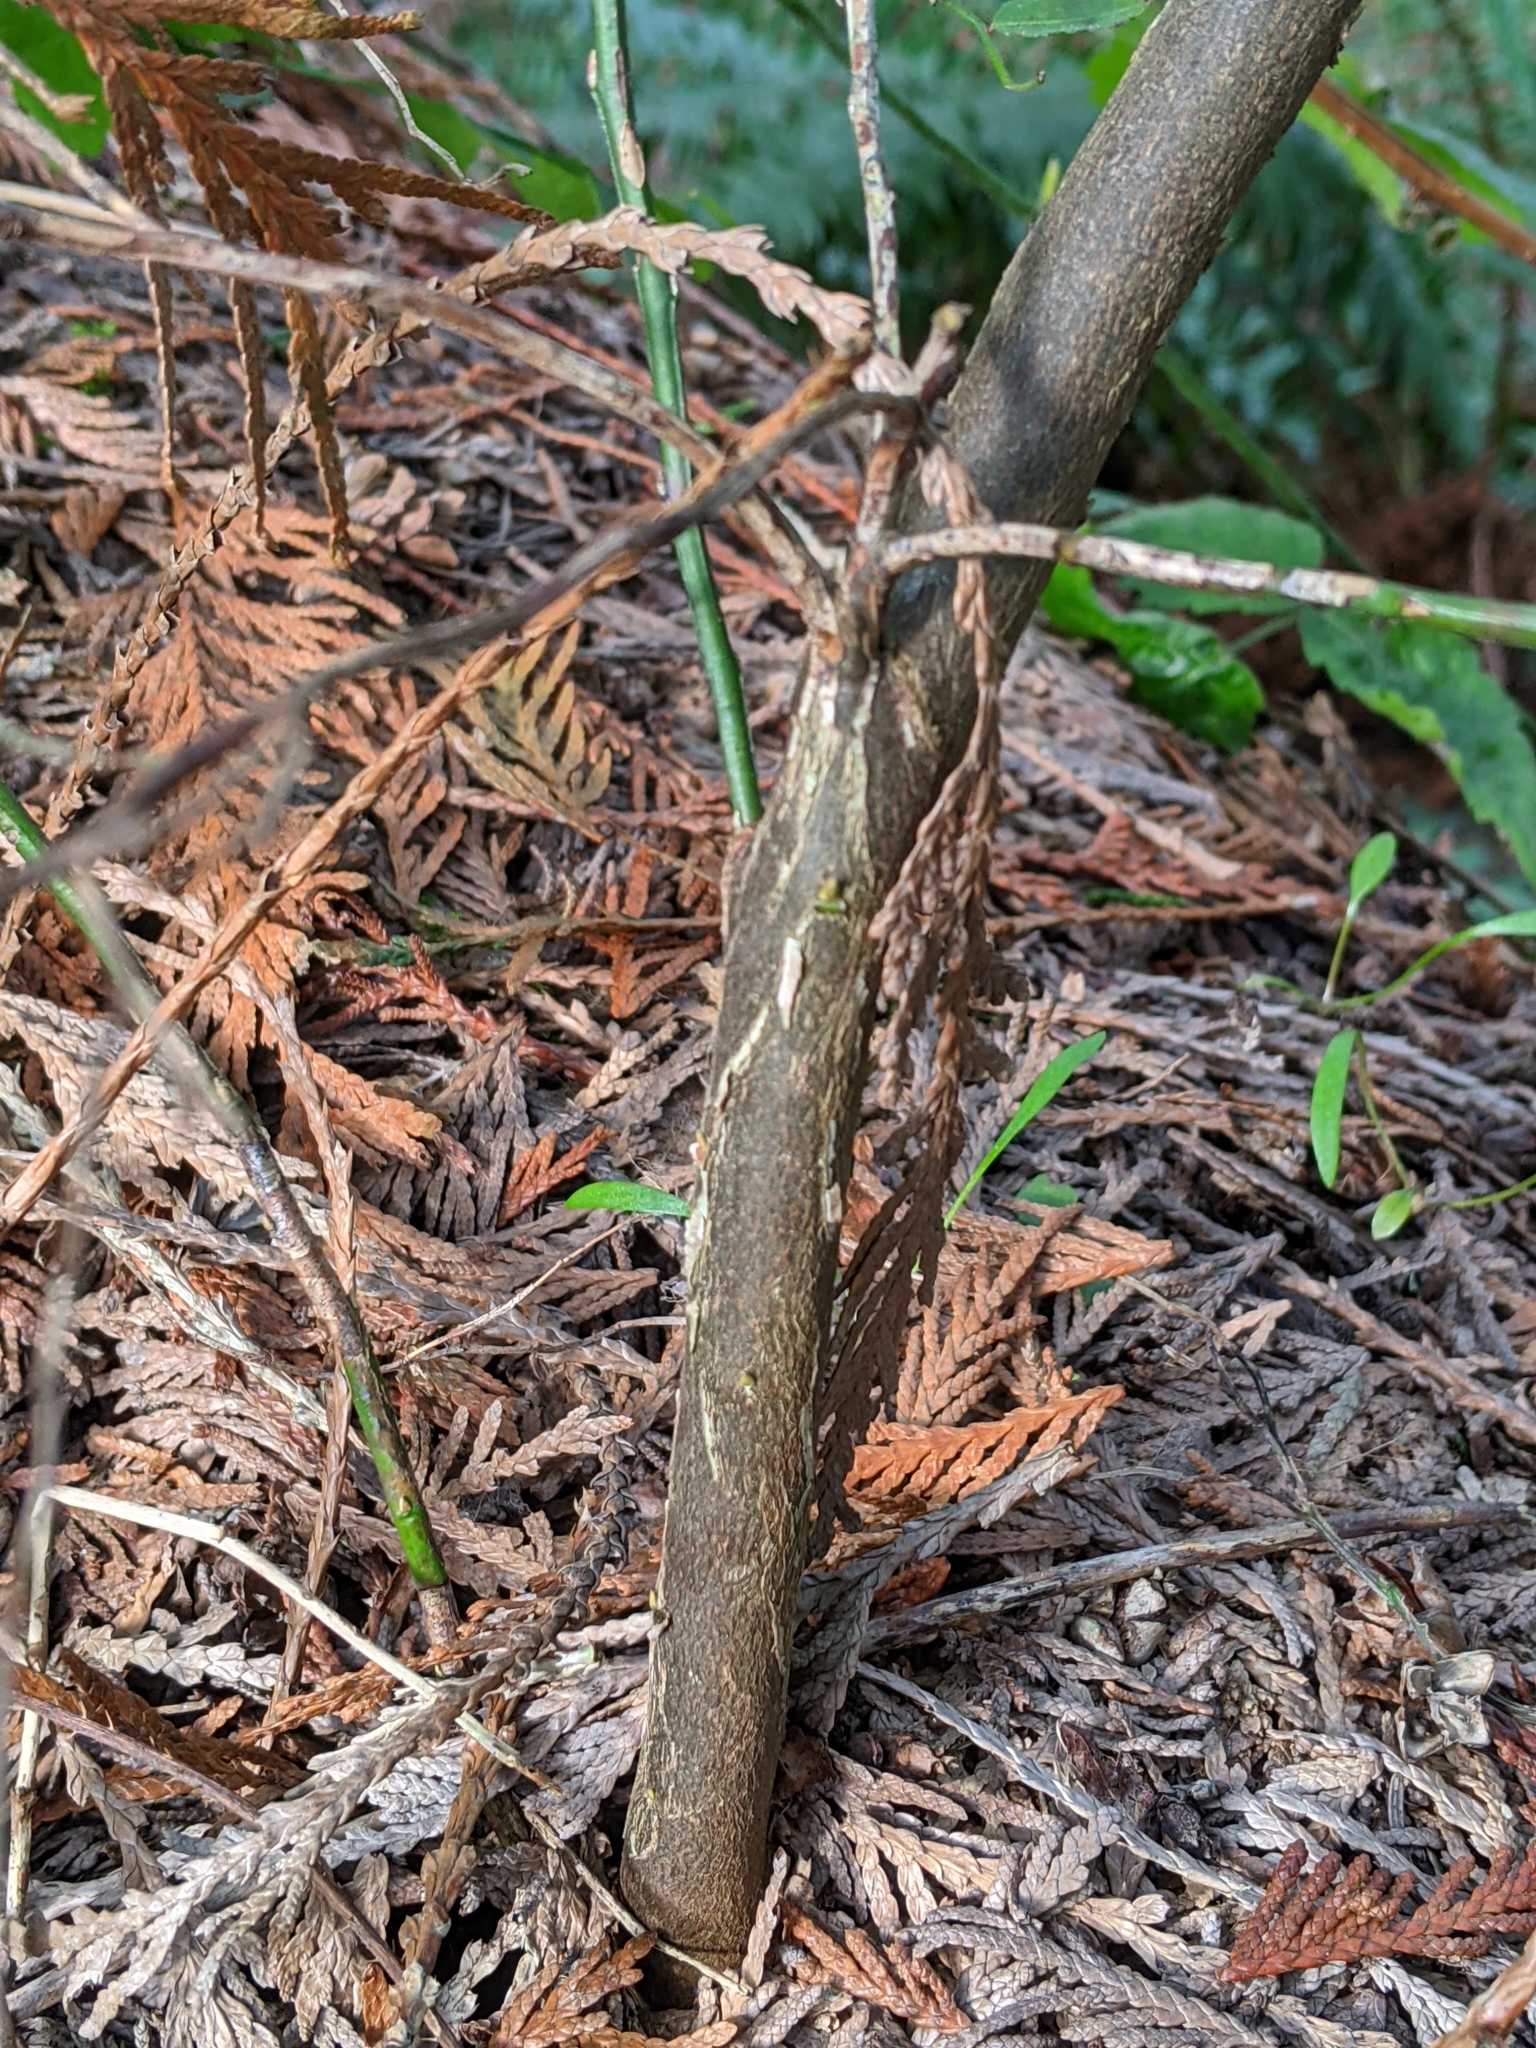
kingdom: Plantae
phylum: Tracheophyta
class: Magnoliopsida
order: Ericales
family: Ericaceae
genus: Vaccinium
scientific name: Vaccinium parvifolium
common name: Red-huckleberry
